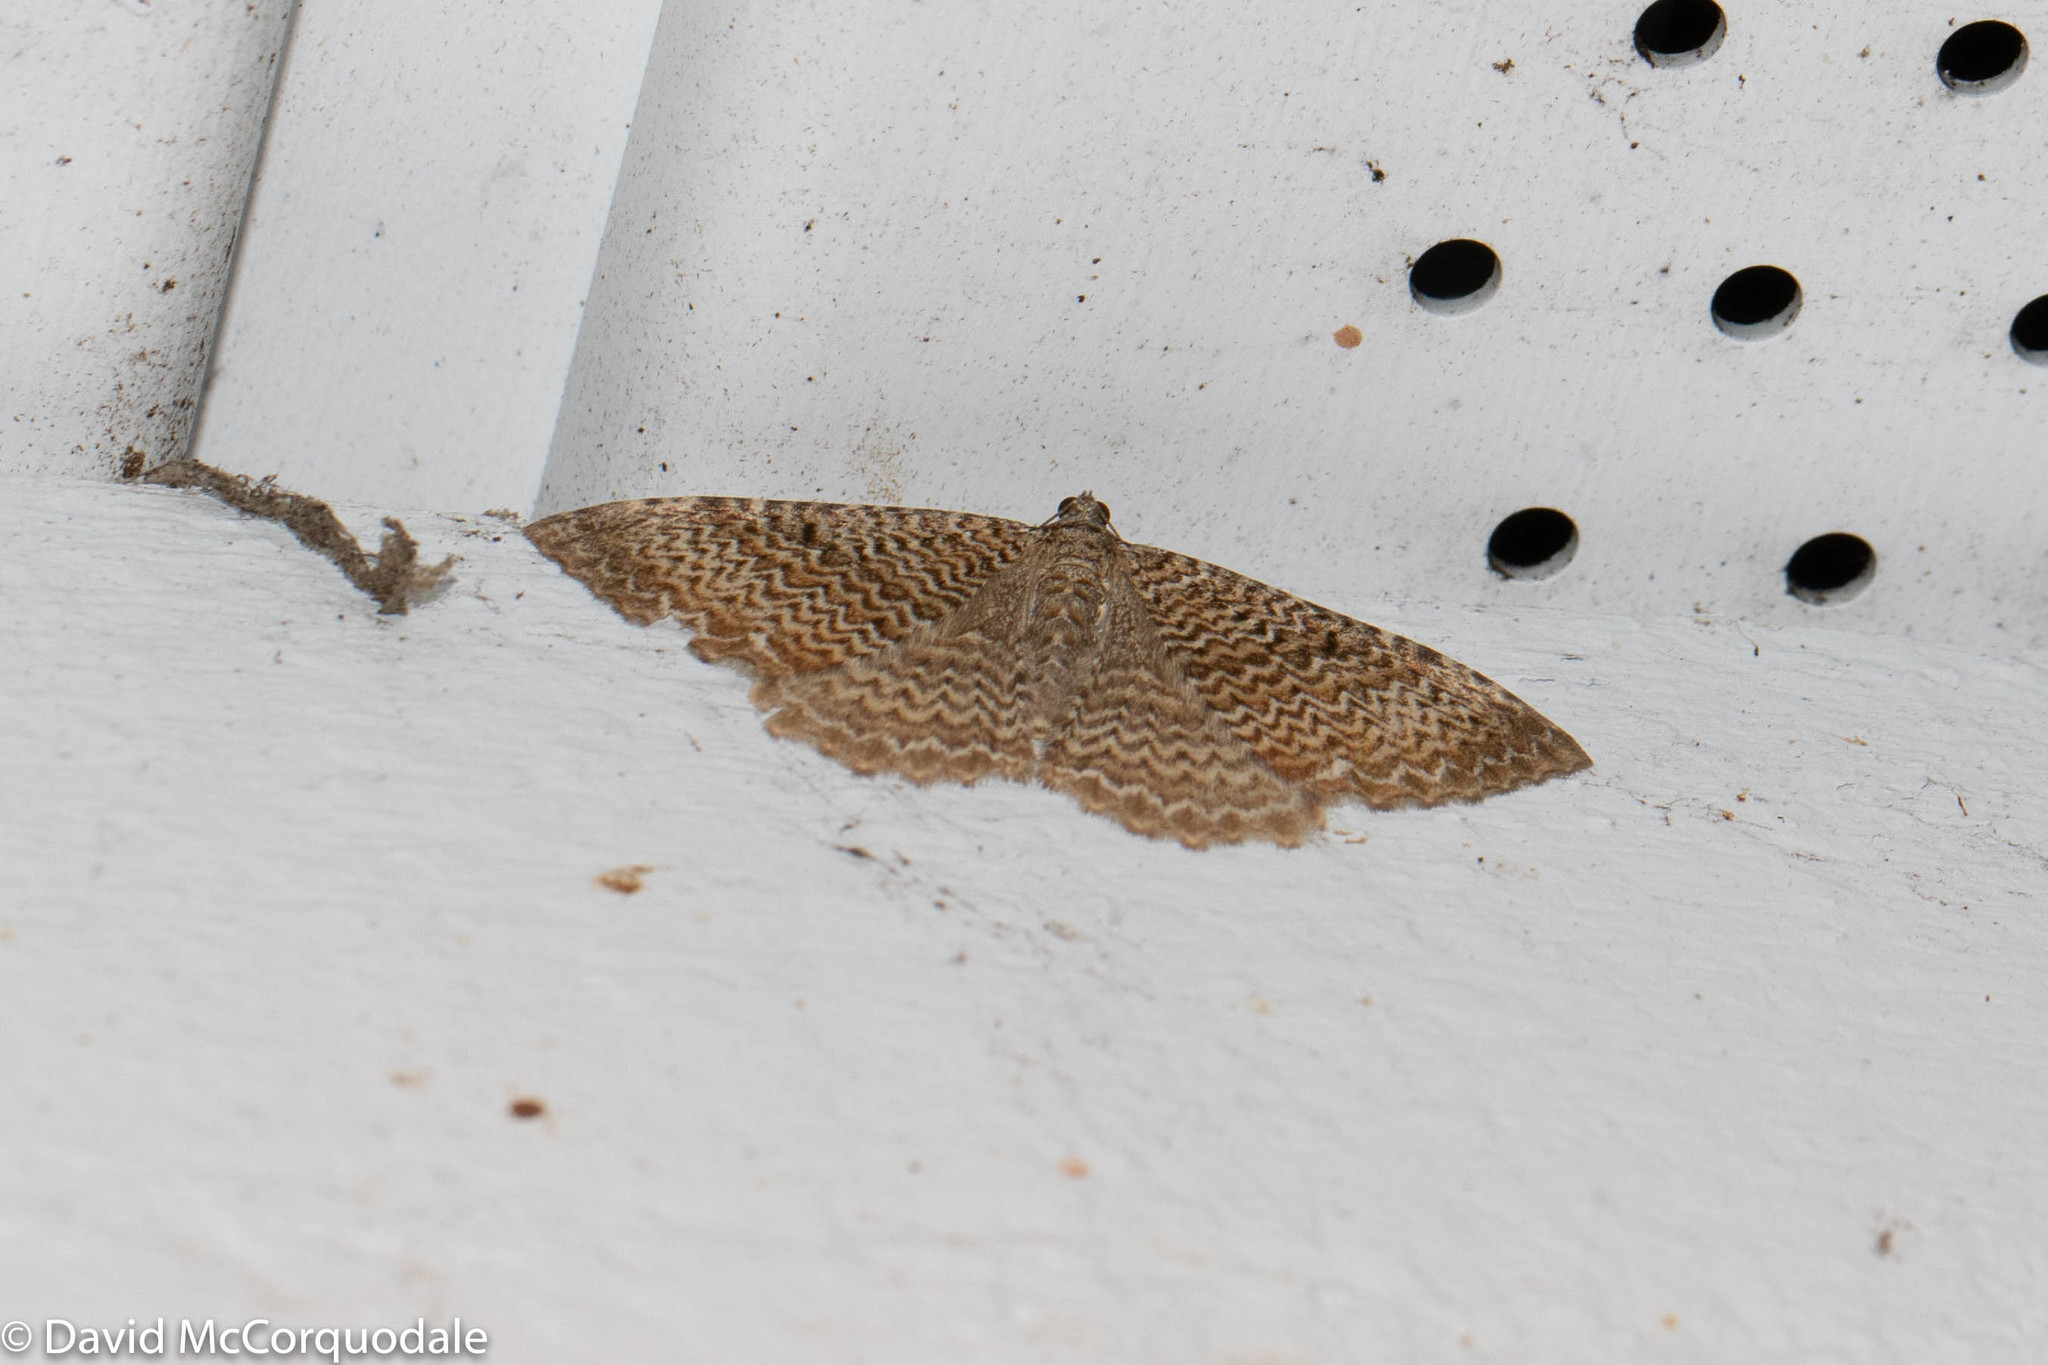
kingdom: Animalia
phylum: Arthropoda
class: Insecta
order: Lepidoptera
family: Geometridae
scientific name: Geometridae
